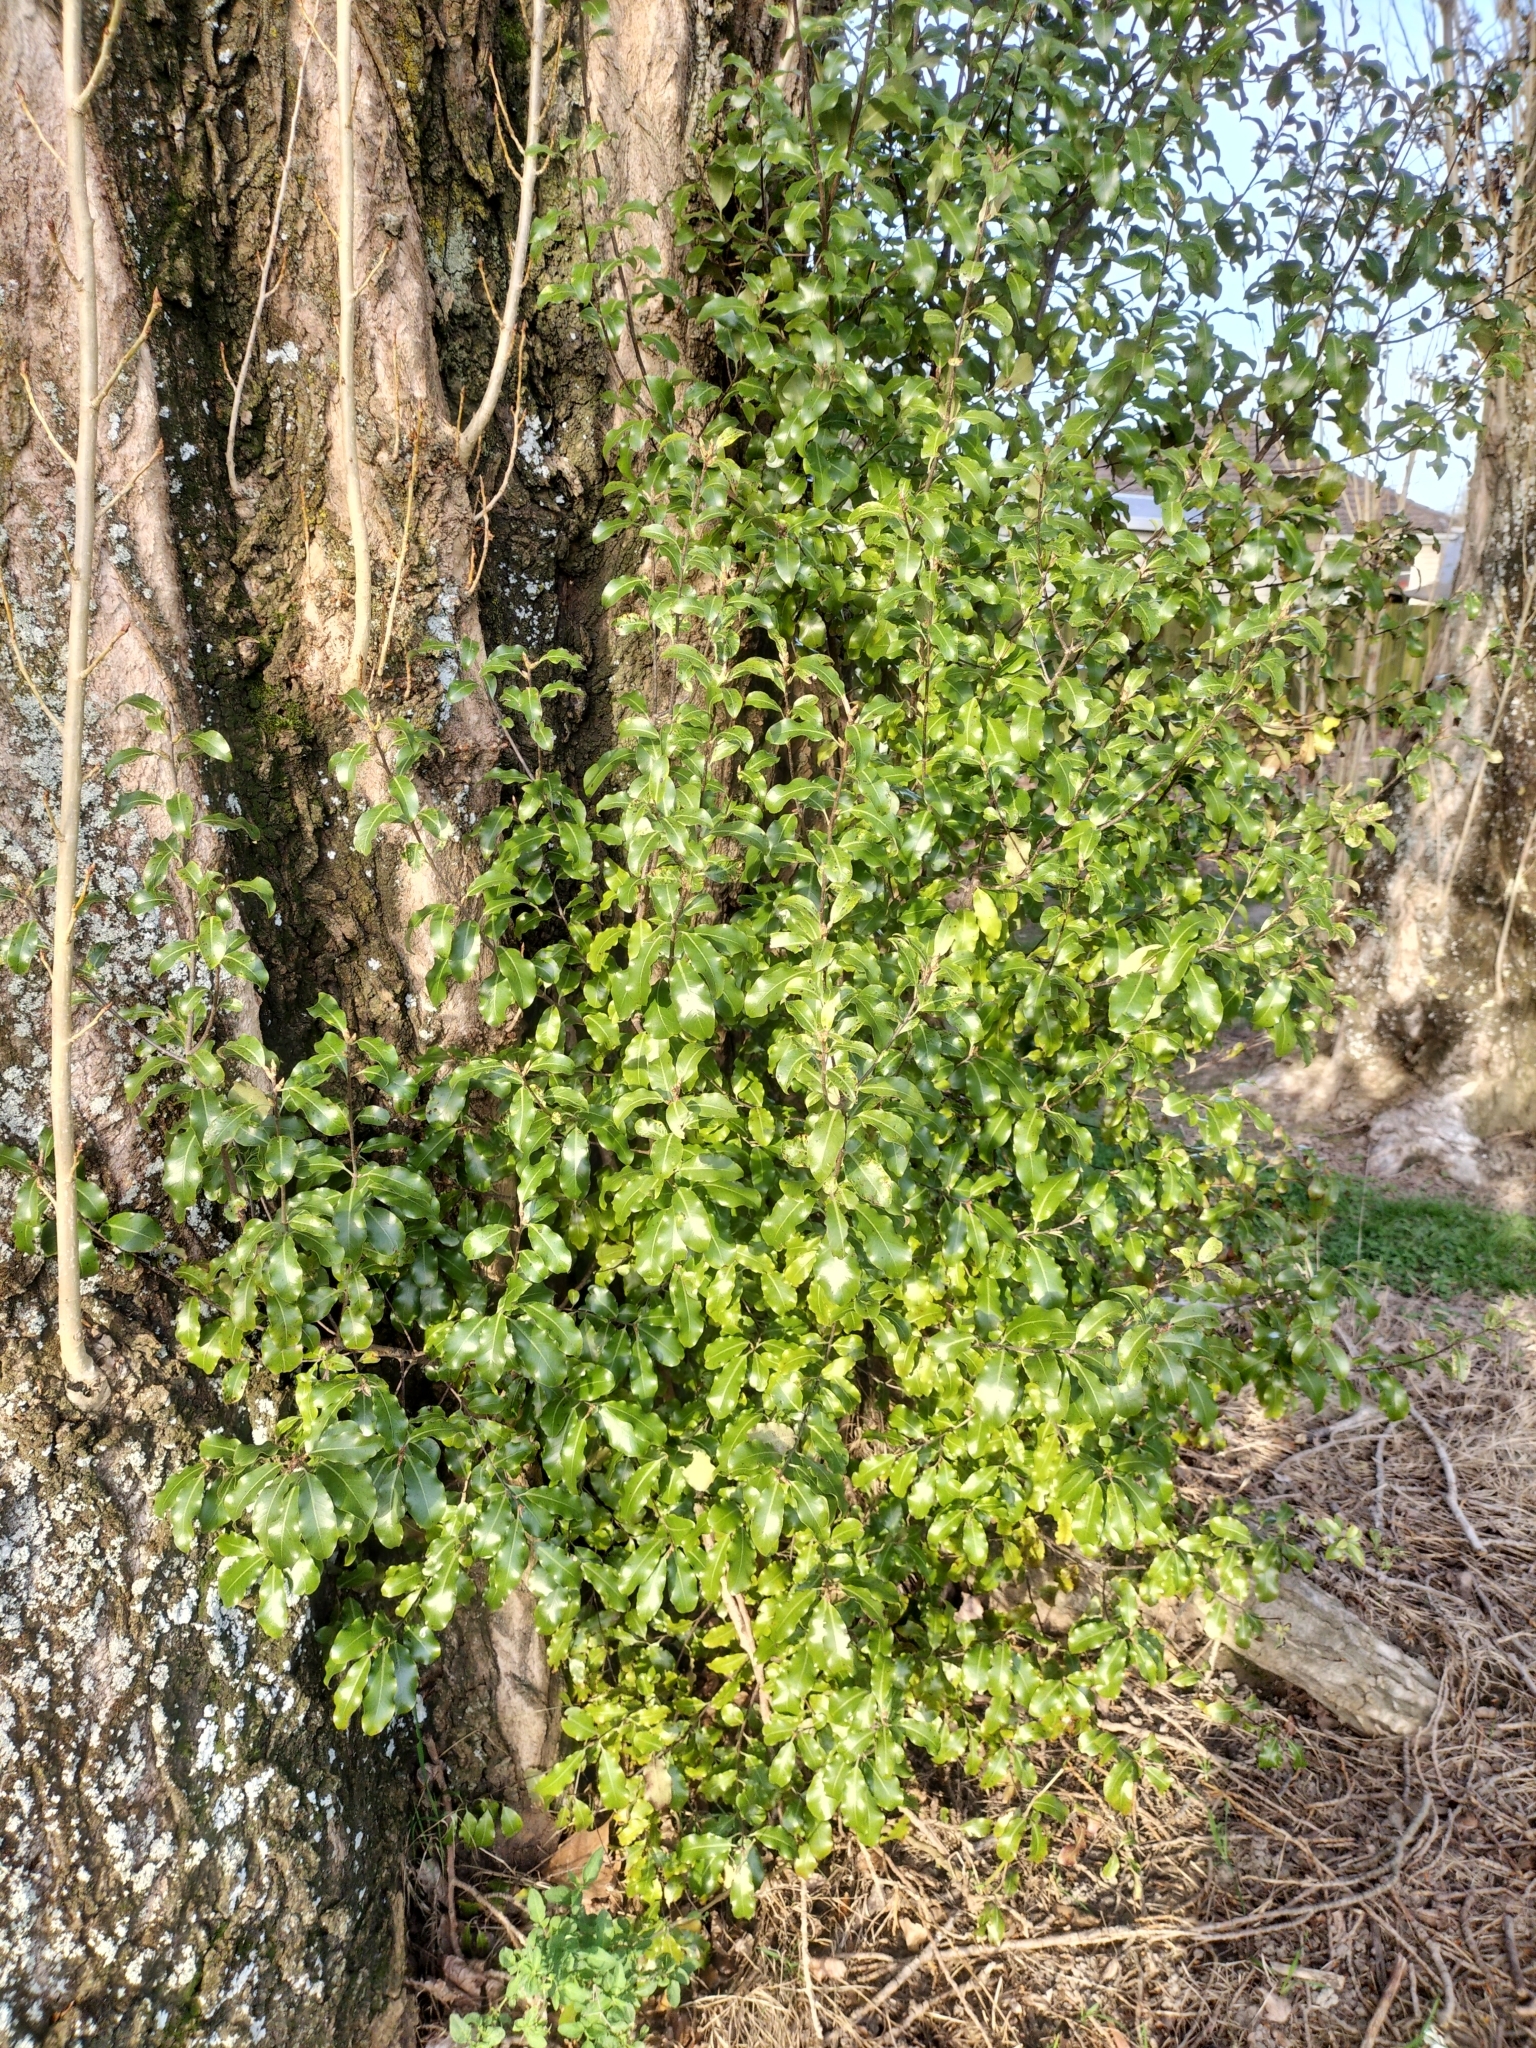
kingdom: Plantae
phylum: Tracheophyta
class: Magnoliopsida
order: Apiales
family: Pittosporaceae
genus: Pittosporum
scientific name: Pittosporum tenuifolium
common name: Kohuhu
